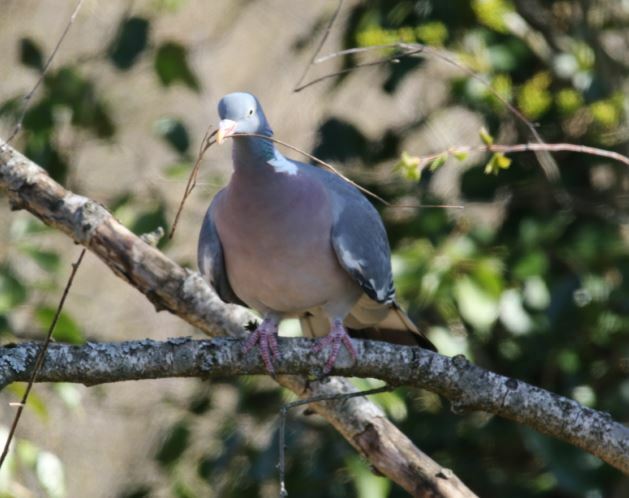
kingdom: Animalia
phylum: Chordata
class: Aves
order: Columbiformes
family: Columbidae
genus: Columba
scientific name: Columba palumbus
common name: Common wood pigeon
